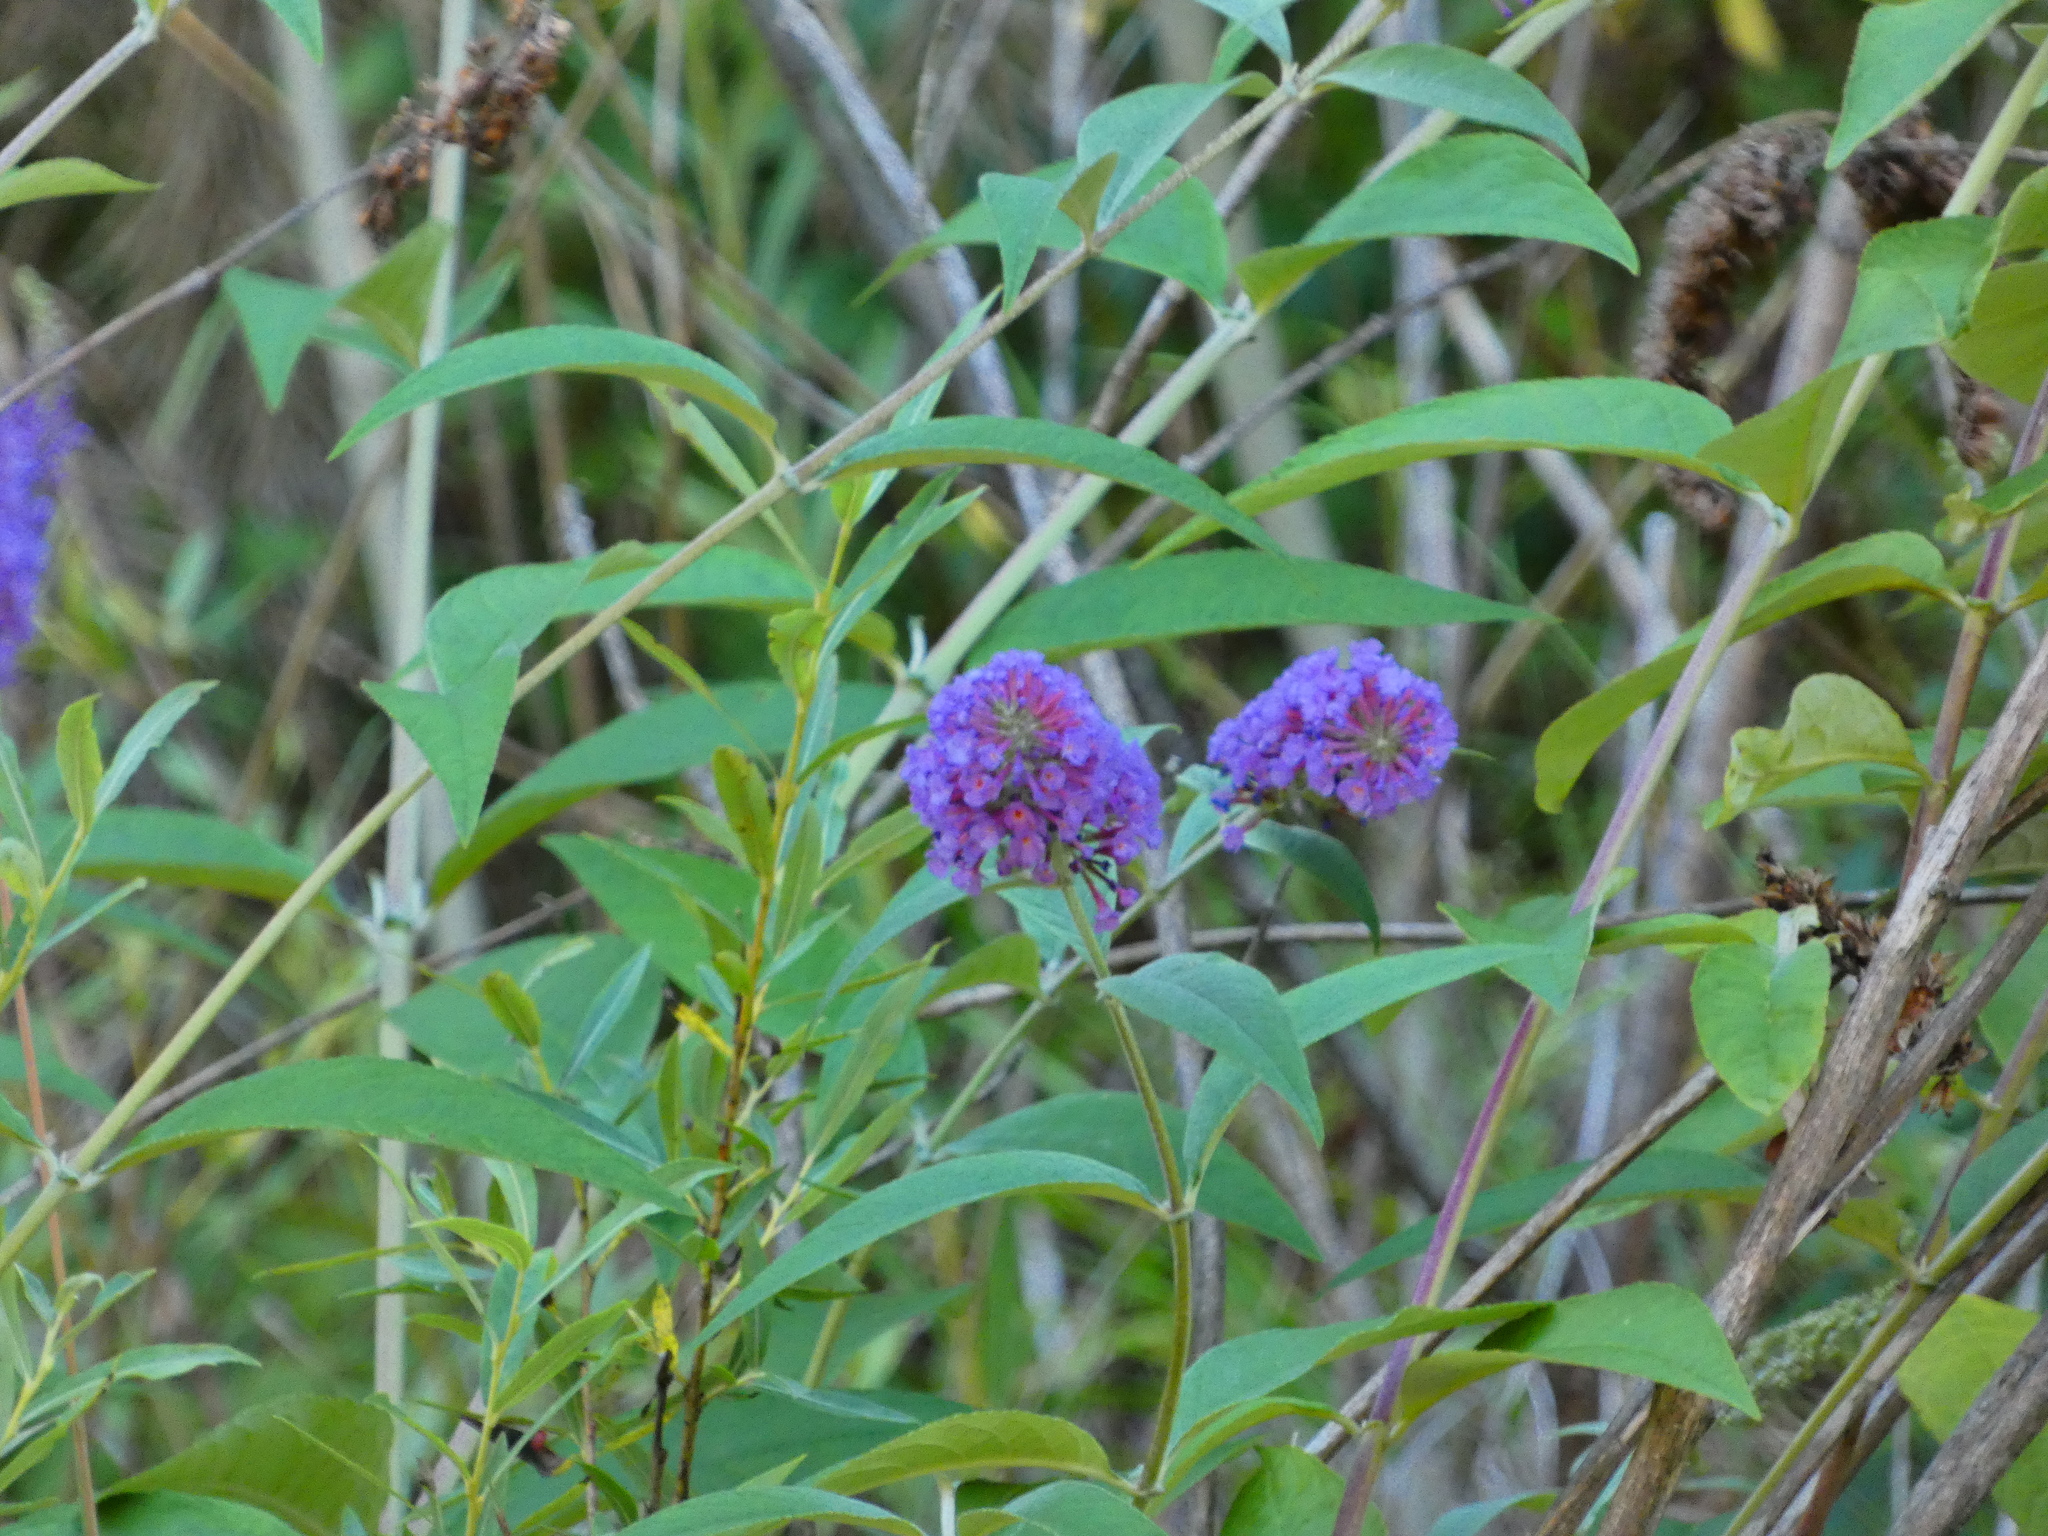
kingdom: Plantae
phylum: Tracheophyta
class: Magnoliopsida
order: Lamiales
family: Scrophulariaceae
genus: Buddleja
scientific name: Buddleja davidii
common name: Butterfly-bush
